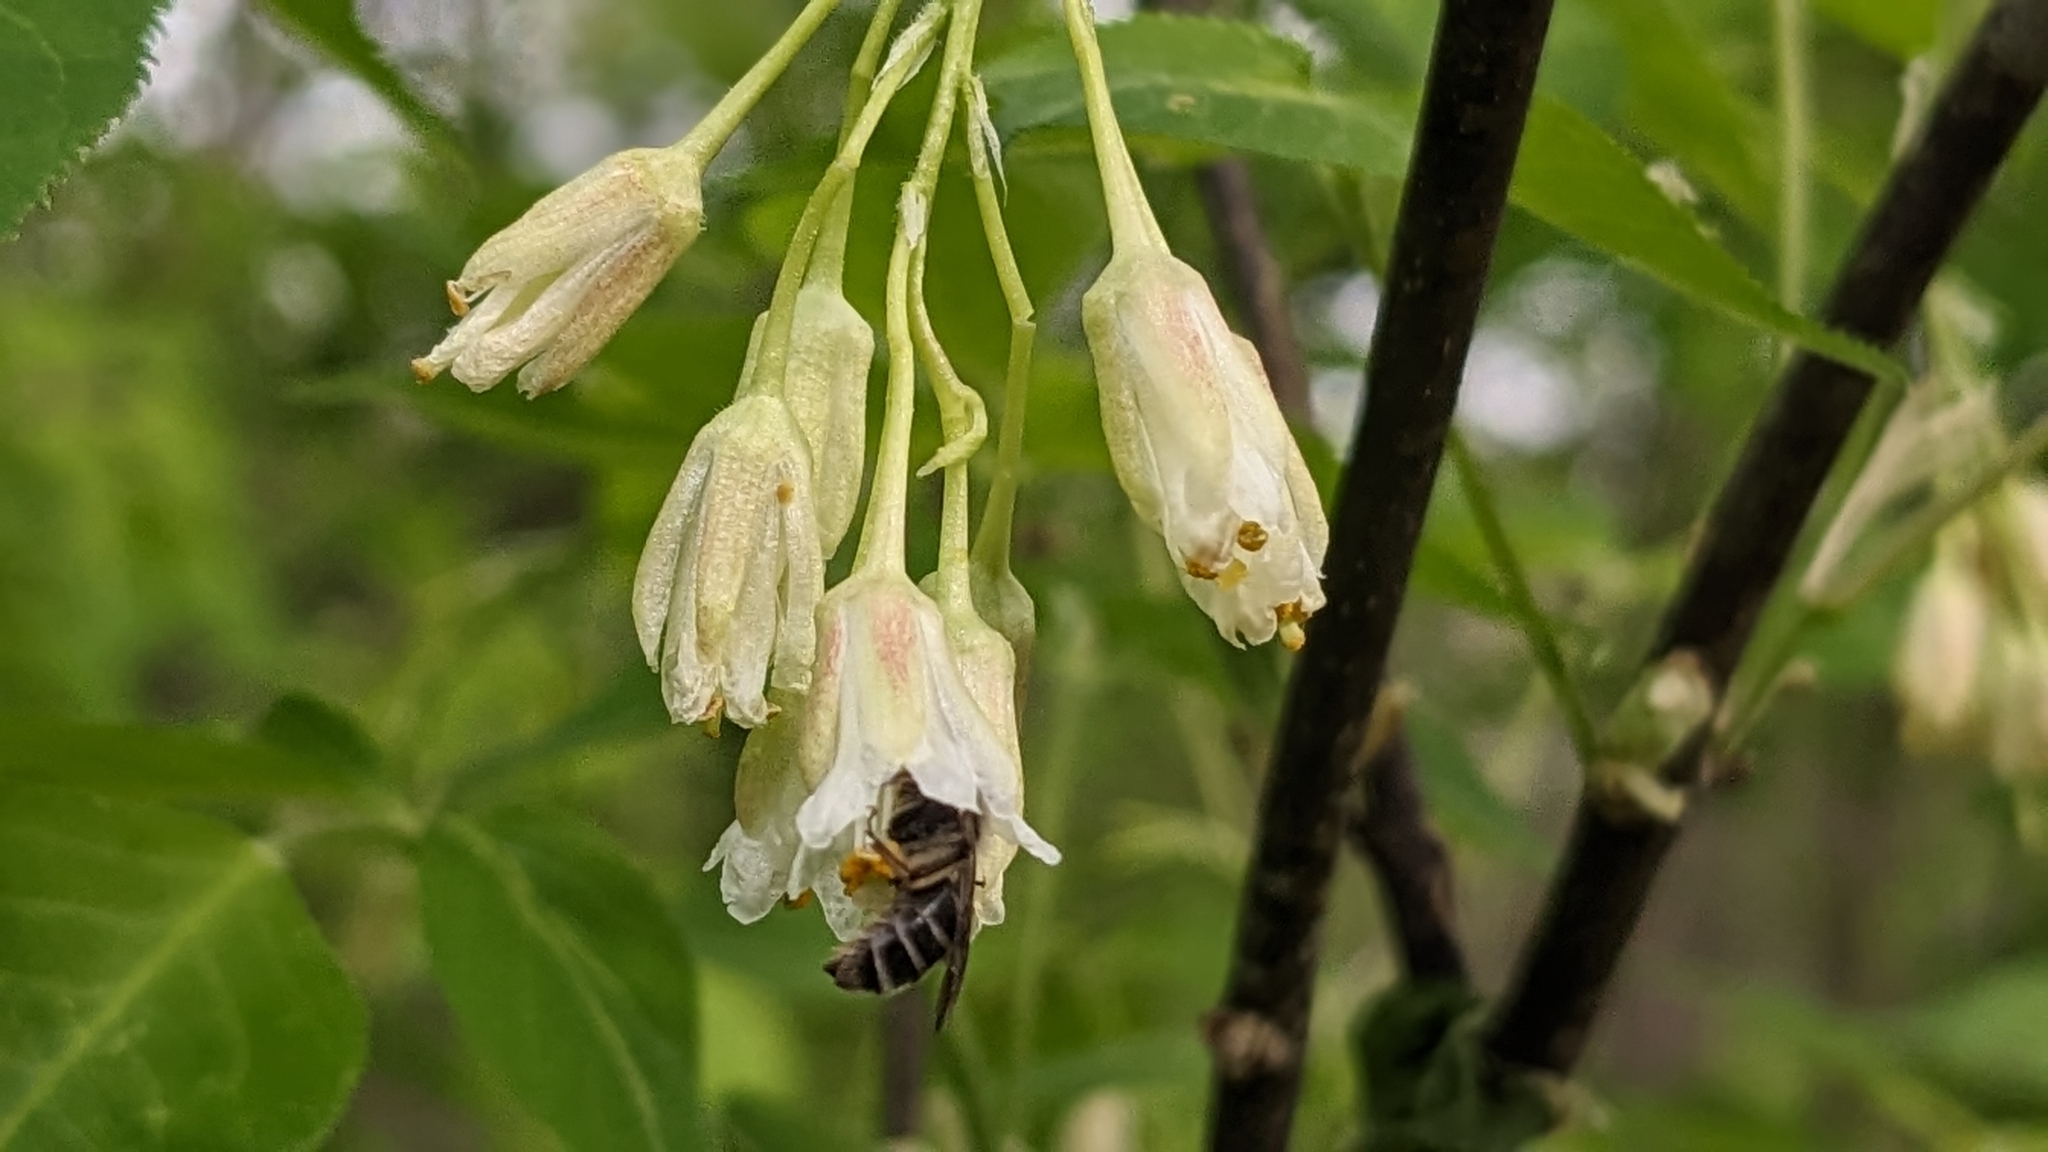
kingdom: Plantae
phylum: Tracheophyta
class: Magnoliopsida
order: Crossosomatales
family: Staphyleaceae
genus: Staphylea
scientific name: Staphylea trifolia
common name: American bladdernut
